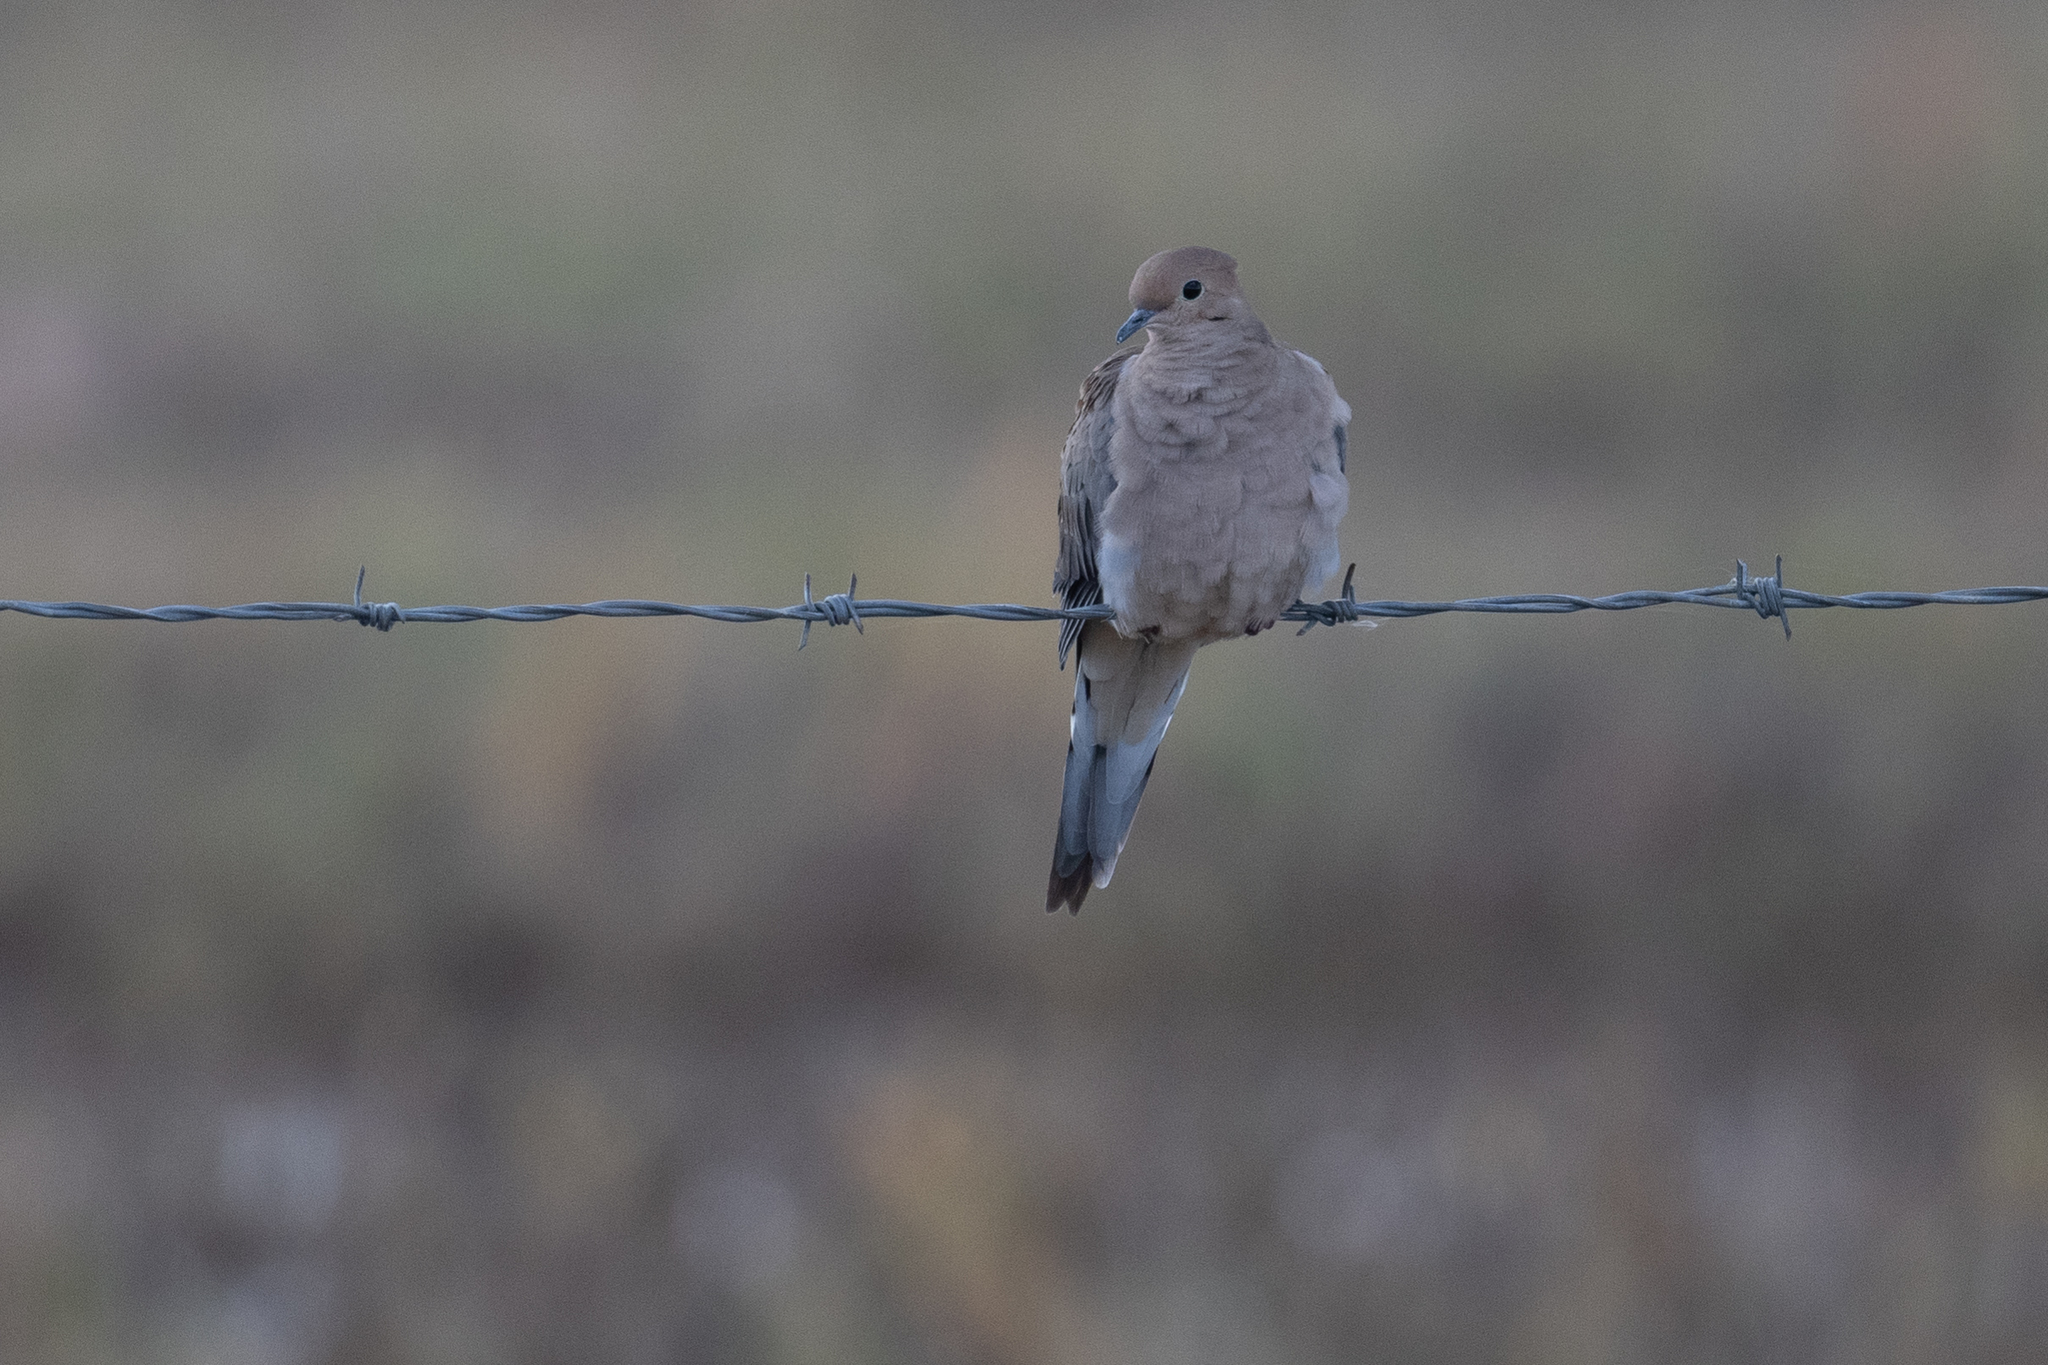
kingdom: Animalia
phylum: Chordata
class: Aves
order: Columbiformes
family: Columbidae
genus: Zenaida
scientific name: Zenaida macroura
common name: Mourning dove
